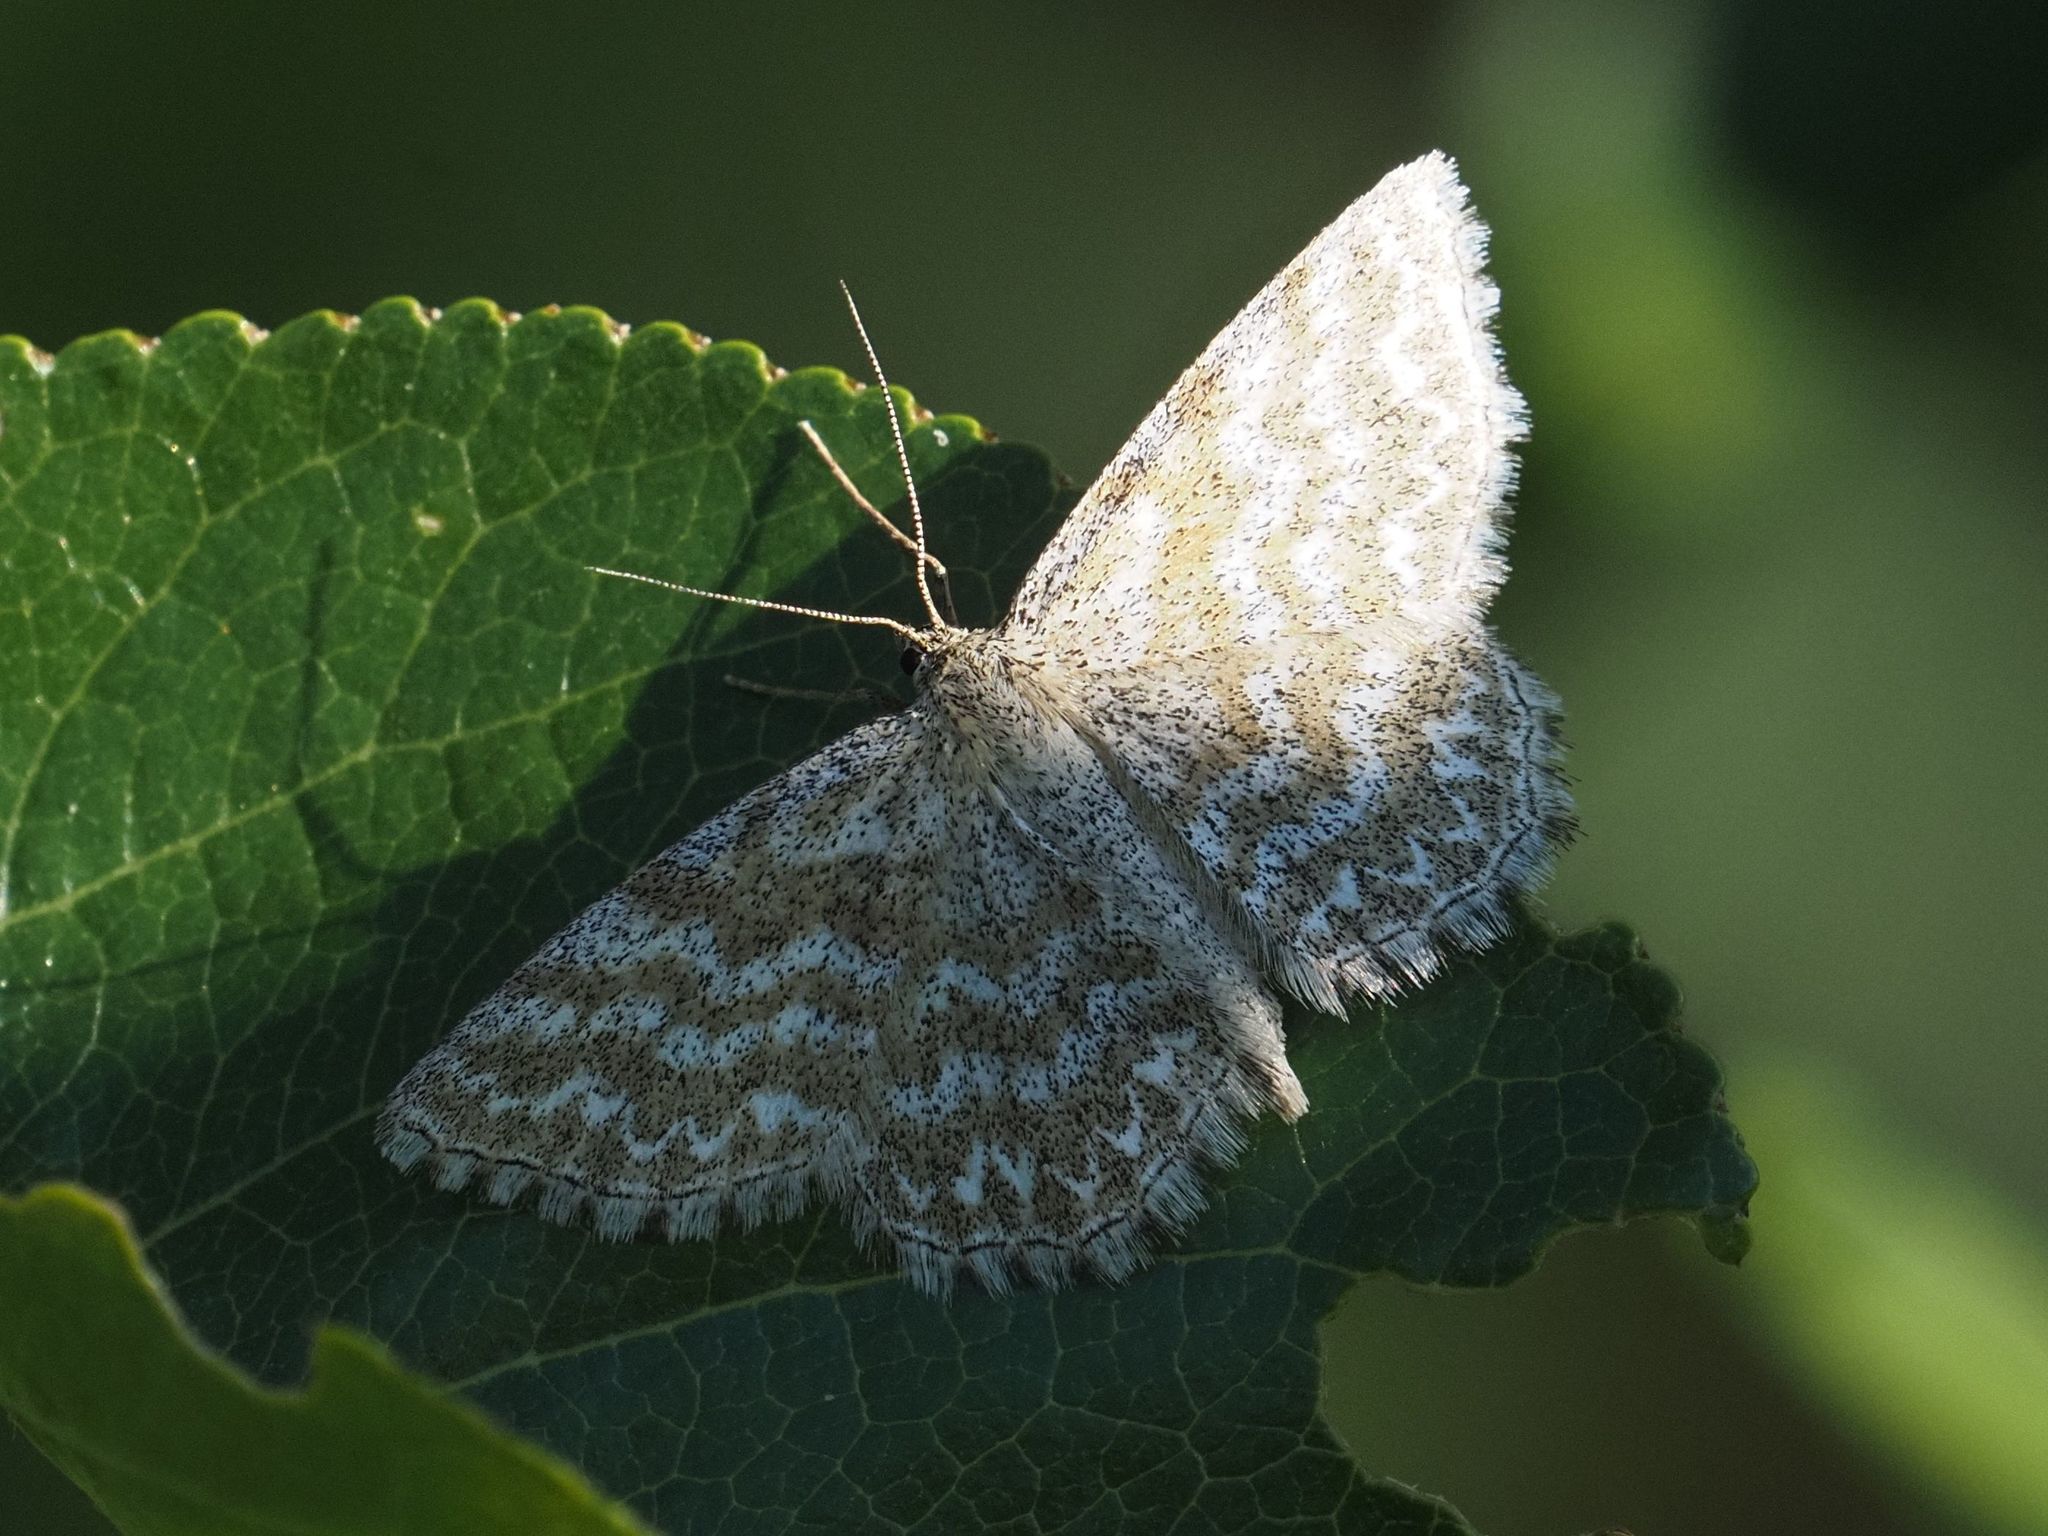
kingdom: Animalia
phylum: Arthropoda
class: Insecta
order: Lepidoptera
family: Geometridae
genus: Scopula
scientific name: Scopula immorata
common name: Lewes wave
